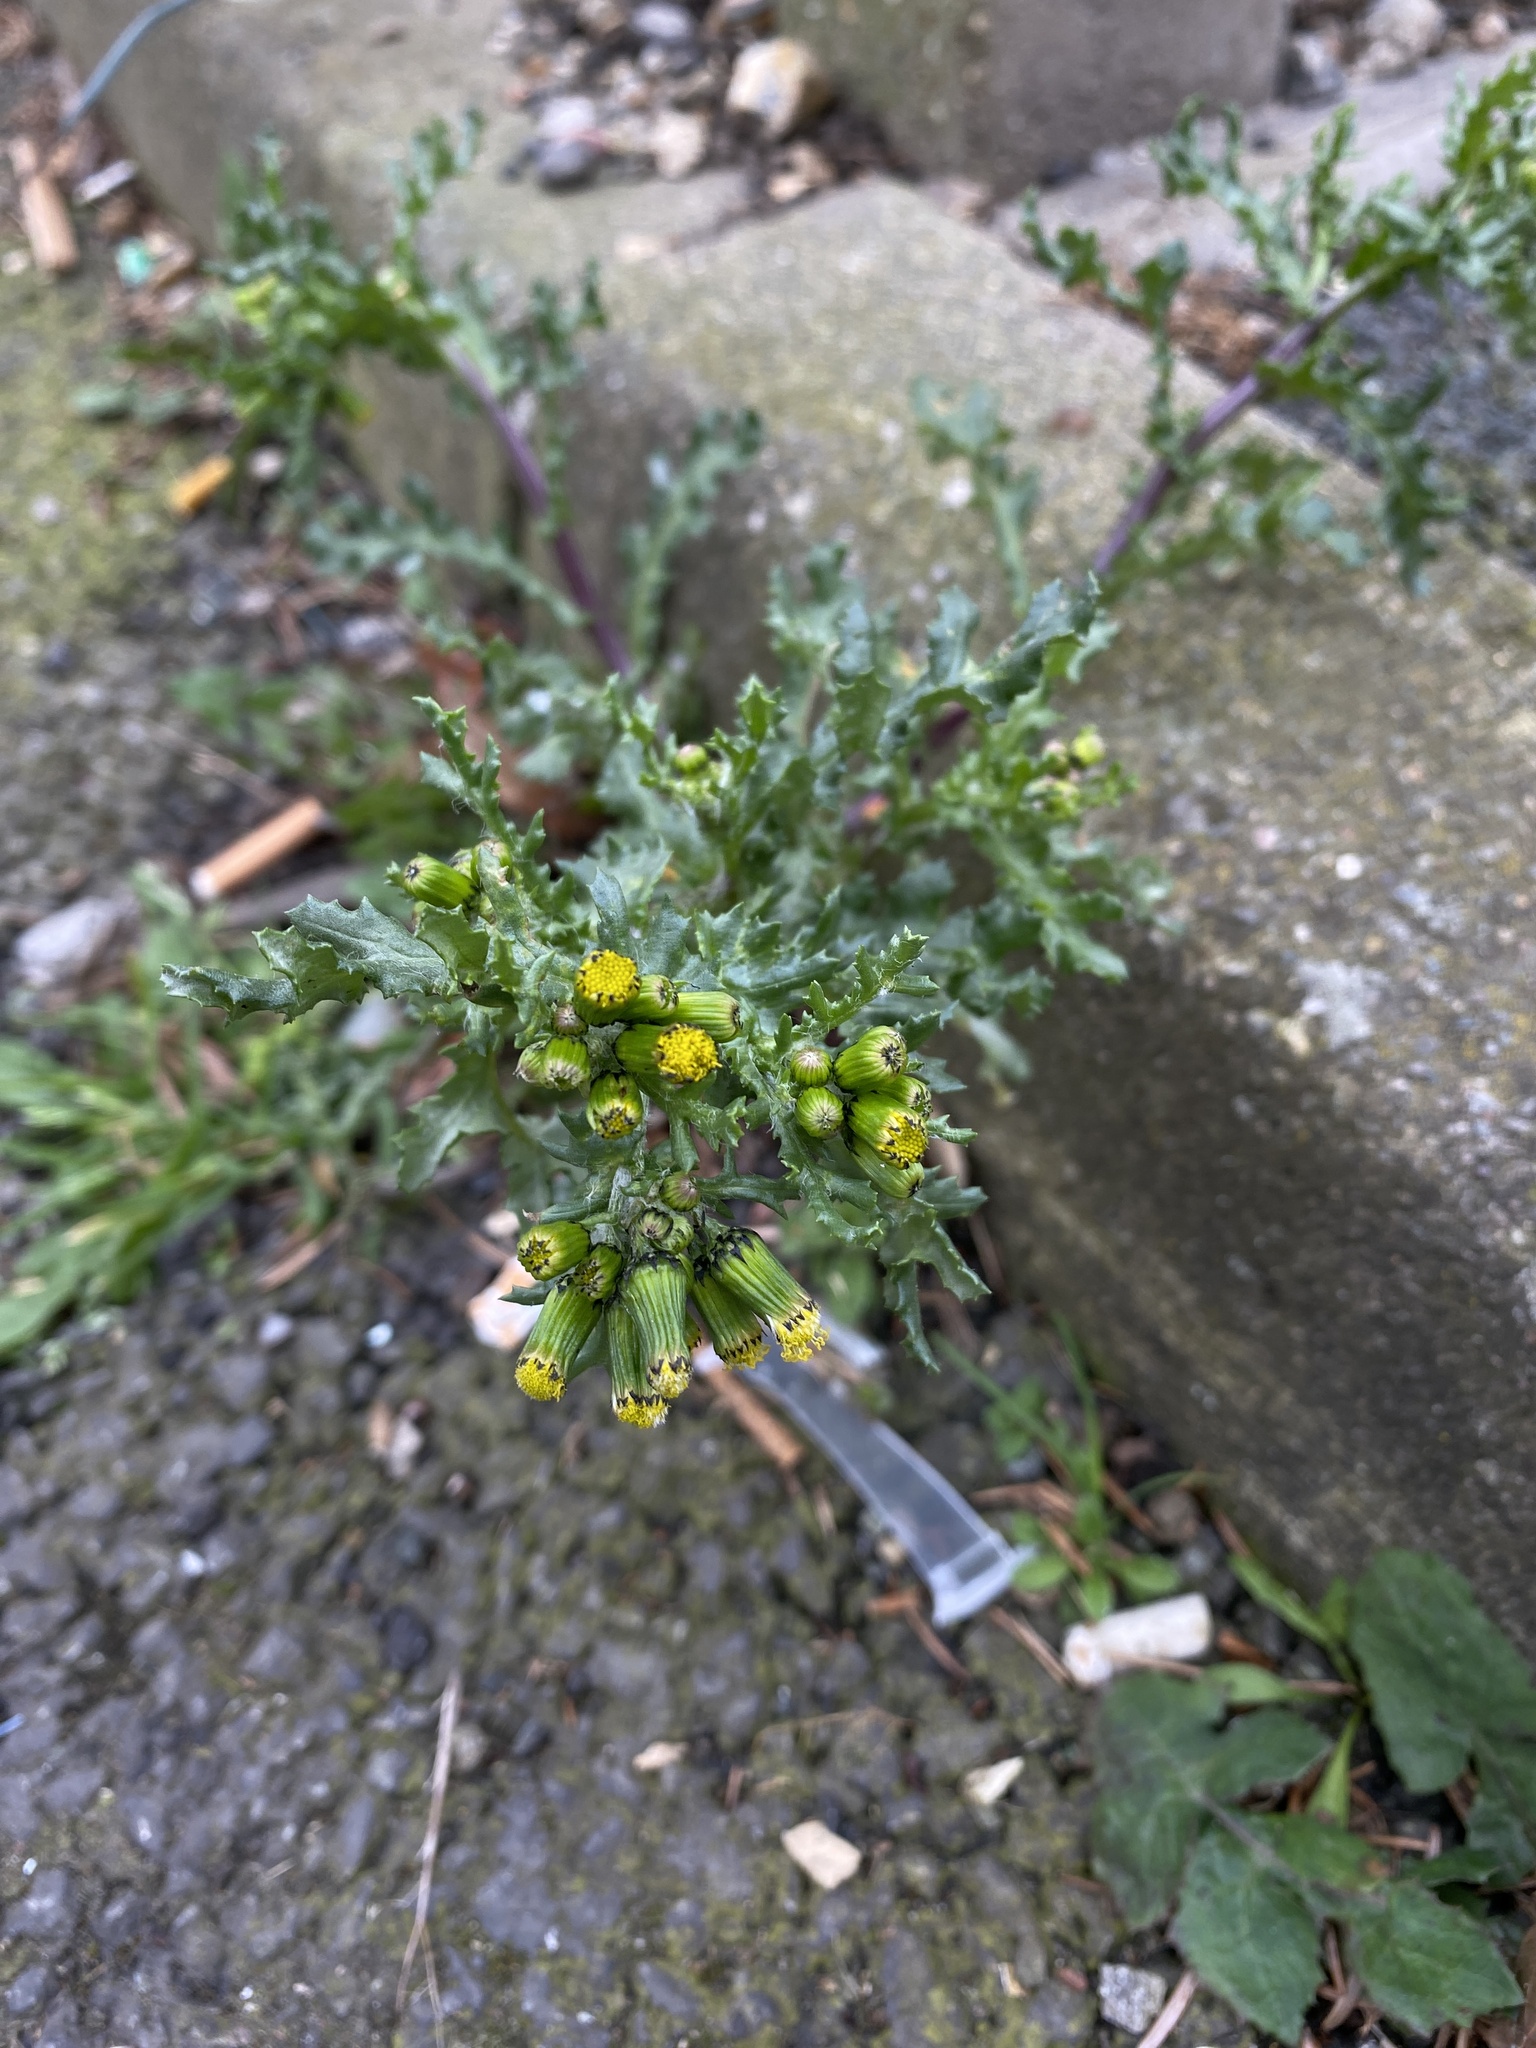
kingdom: Plantae
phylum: Tracheophyta
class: Magnoliopsida
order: Asterales
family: Asteraceae
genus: Senecio
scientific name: Senecio vulgaris
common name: Old-man-in-the-spring
